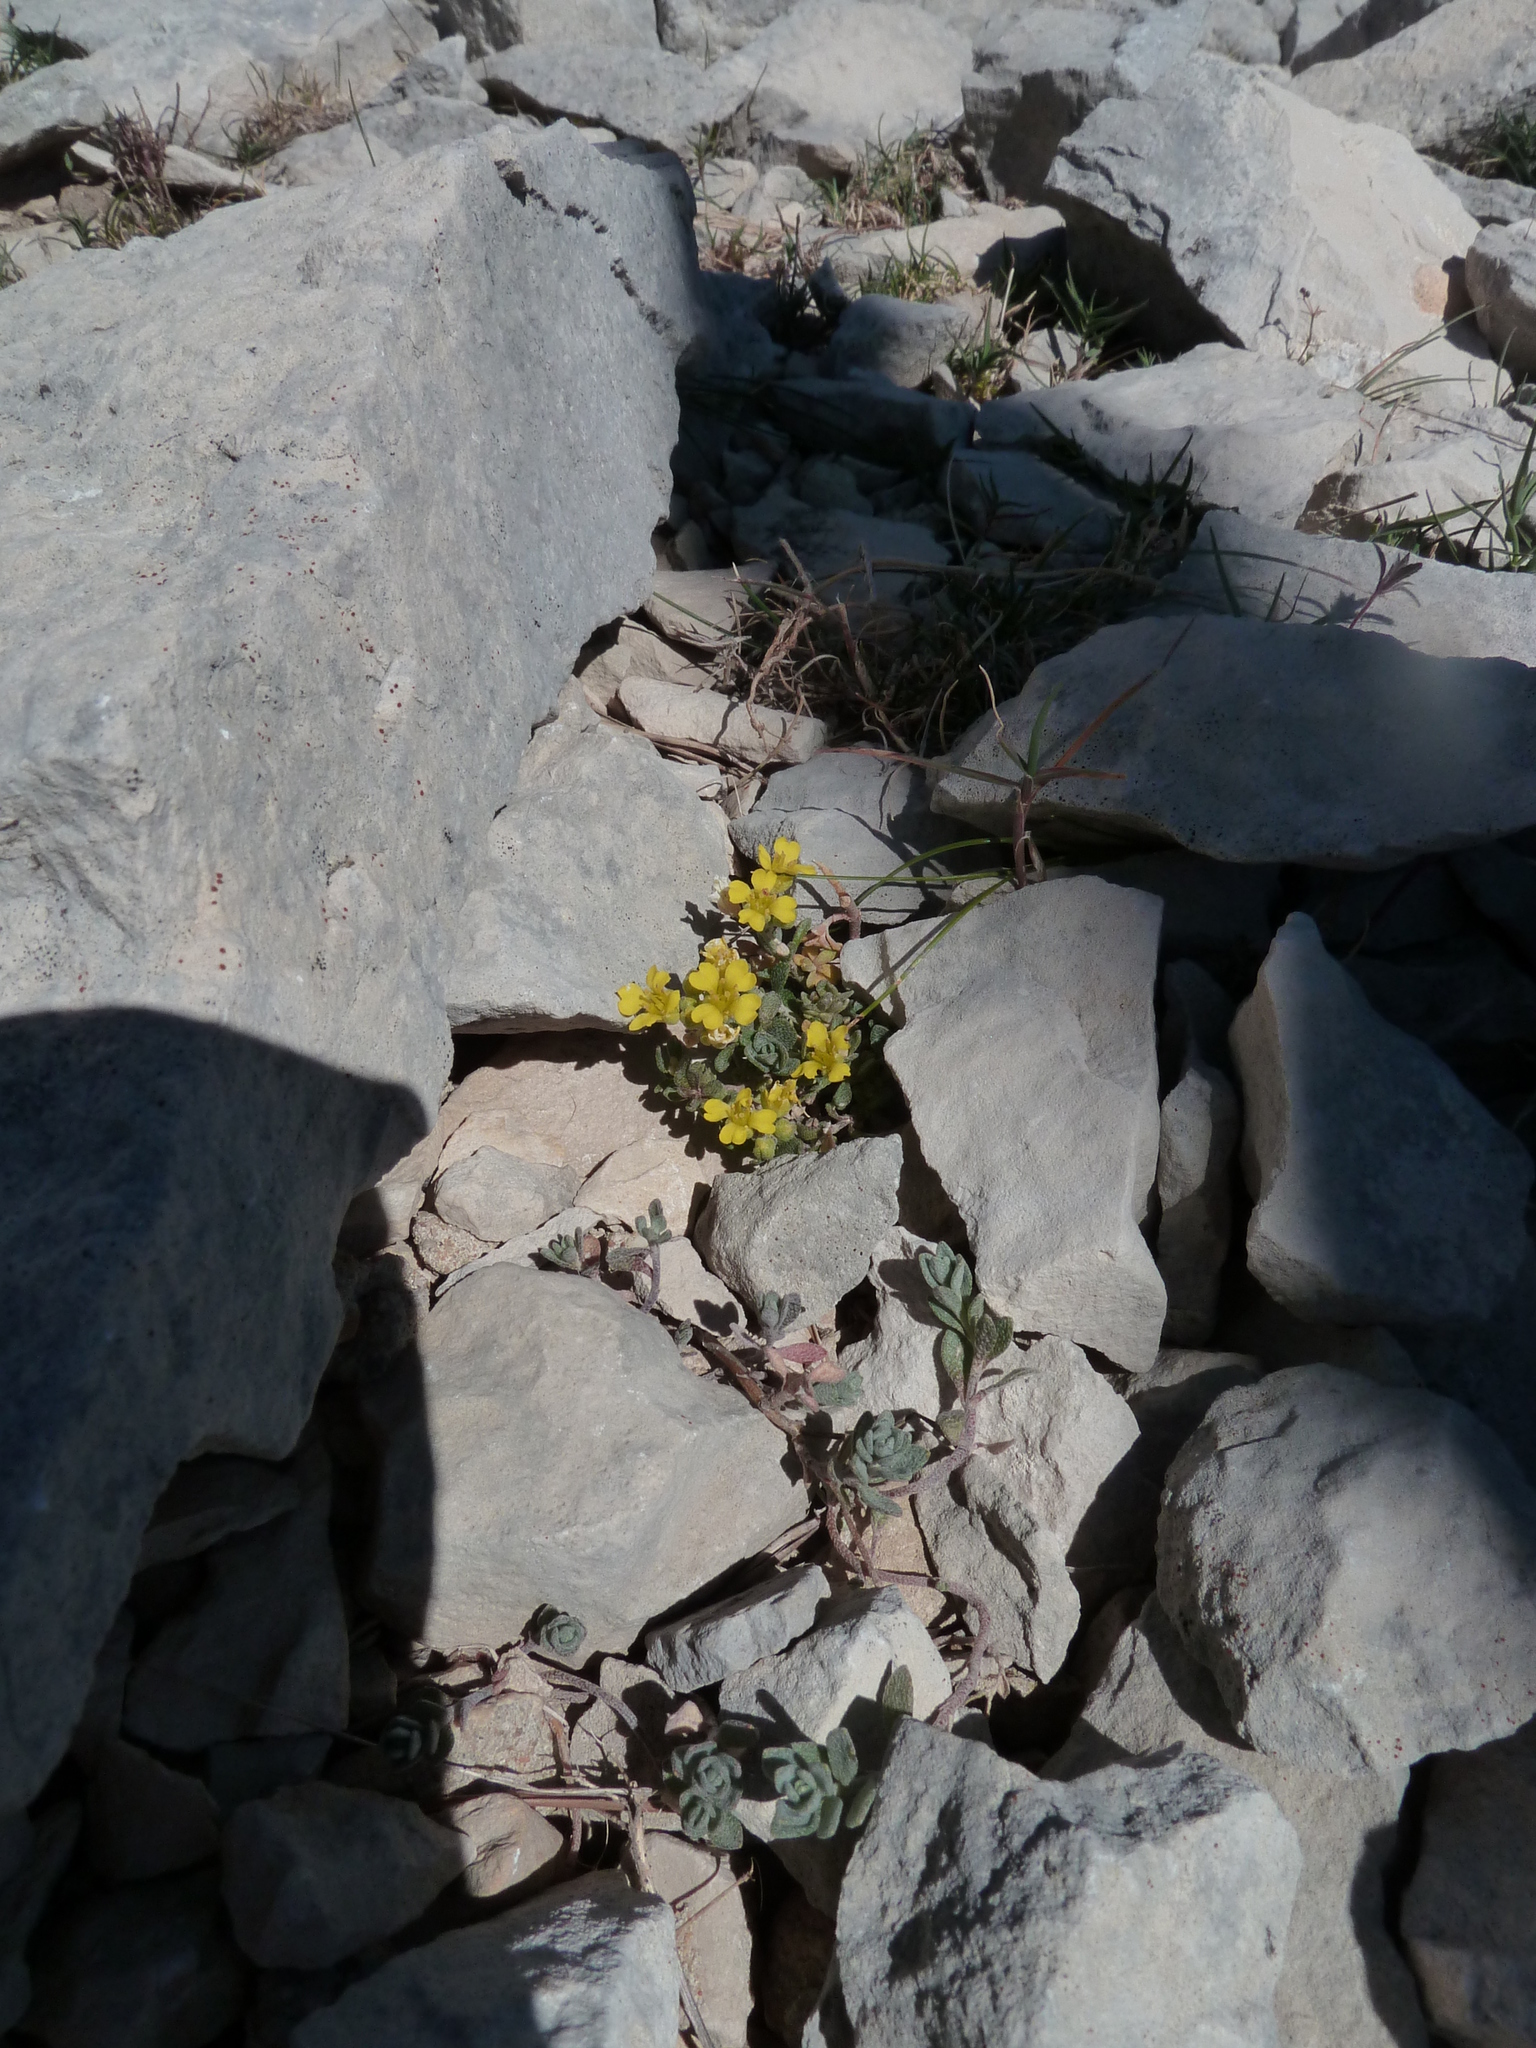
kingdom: Plantae
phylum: Tracheophyta
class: Magnoliopsida
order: Brassicales
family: Brassicaceae
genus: Alyssum
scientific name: Alyssum flexicaule
